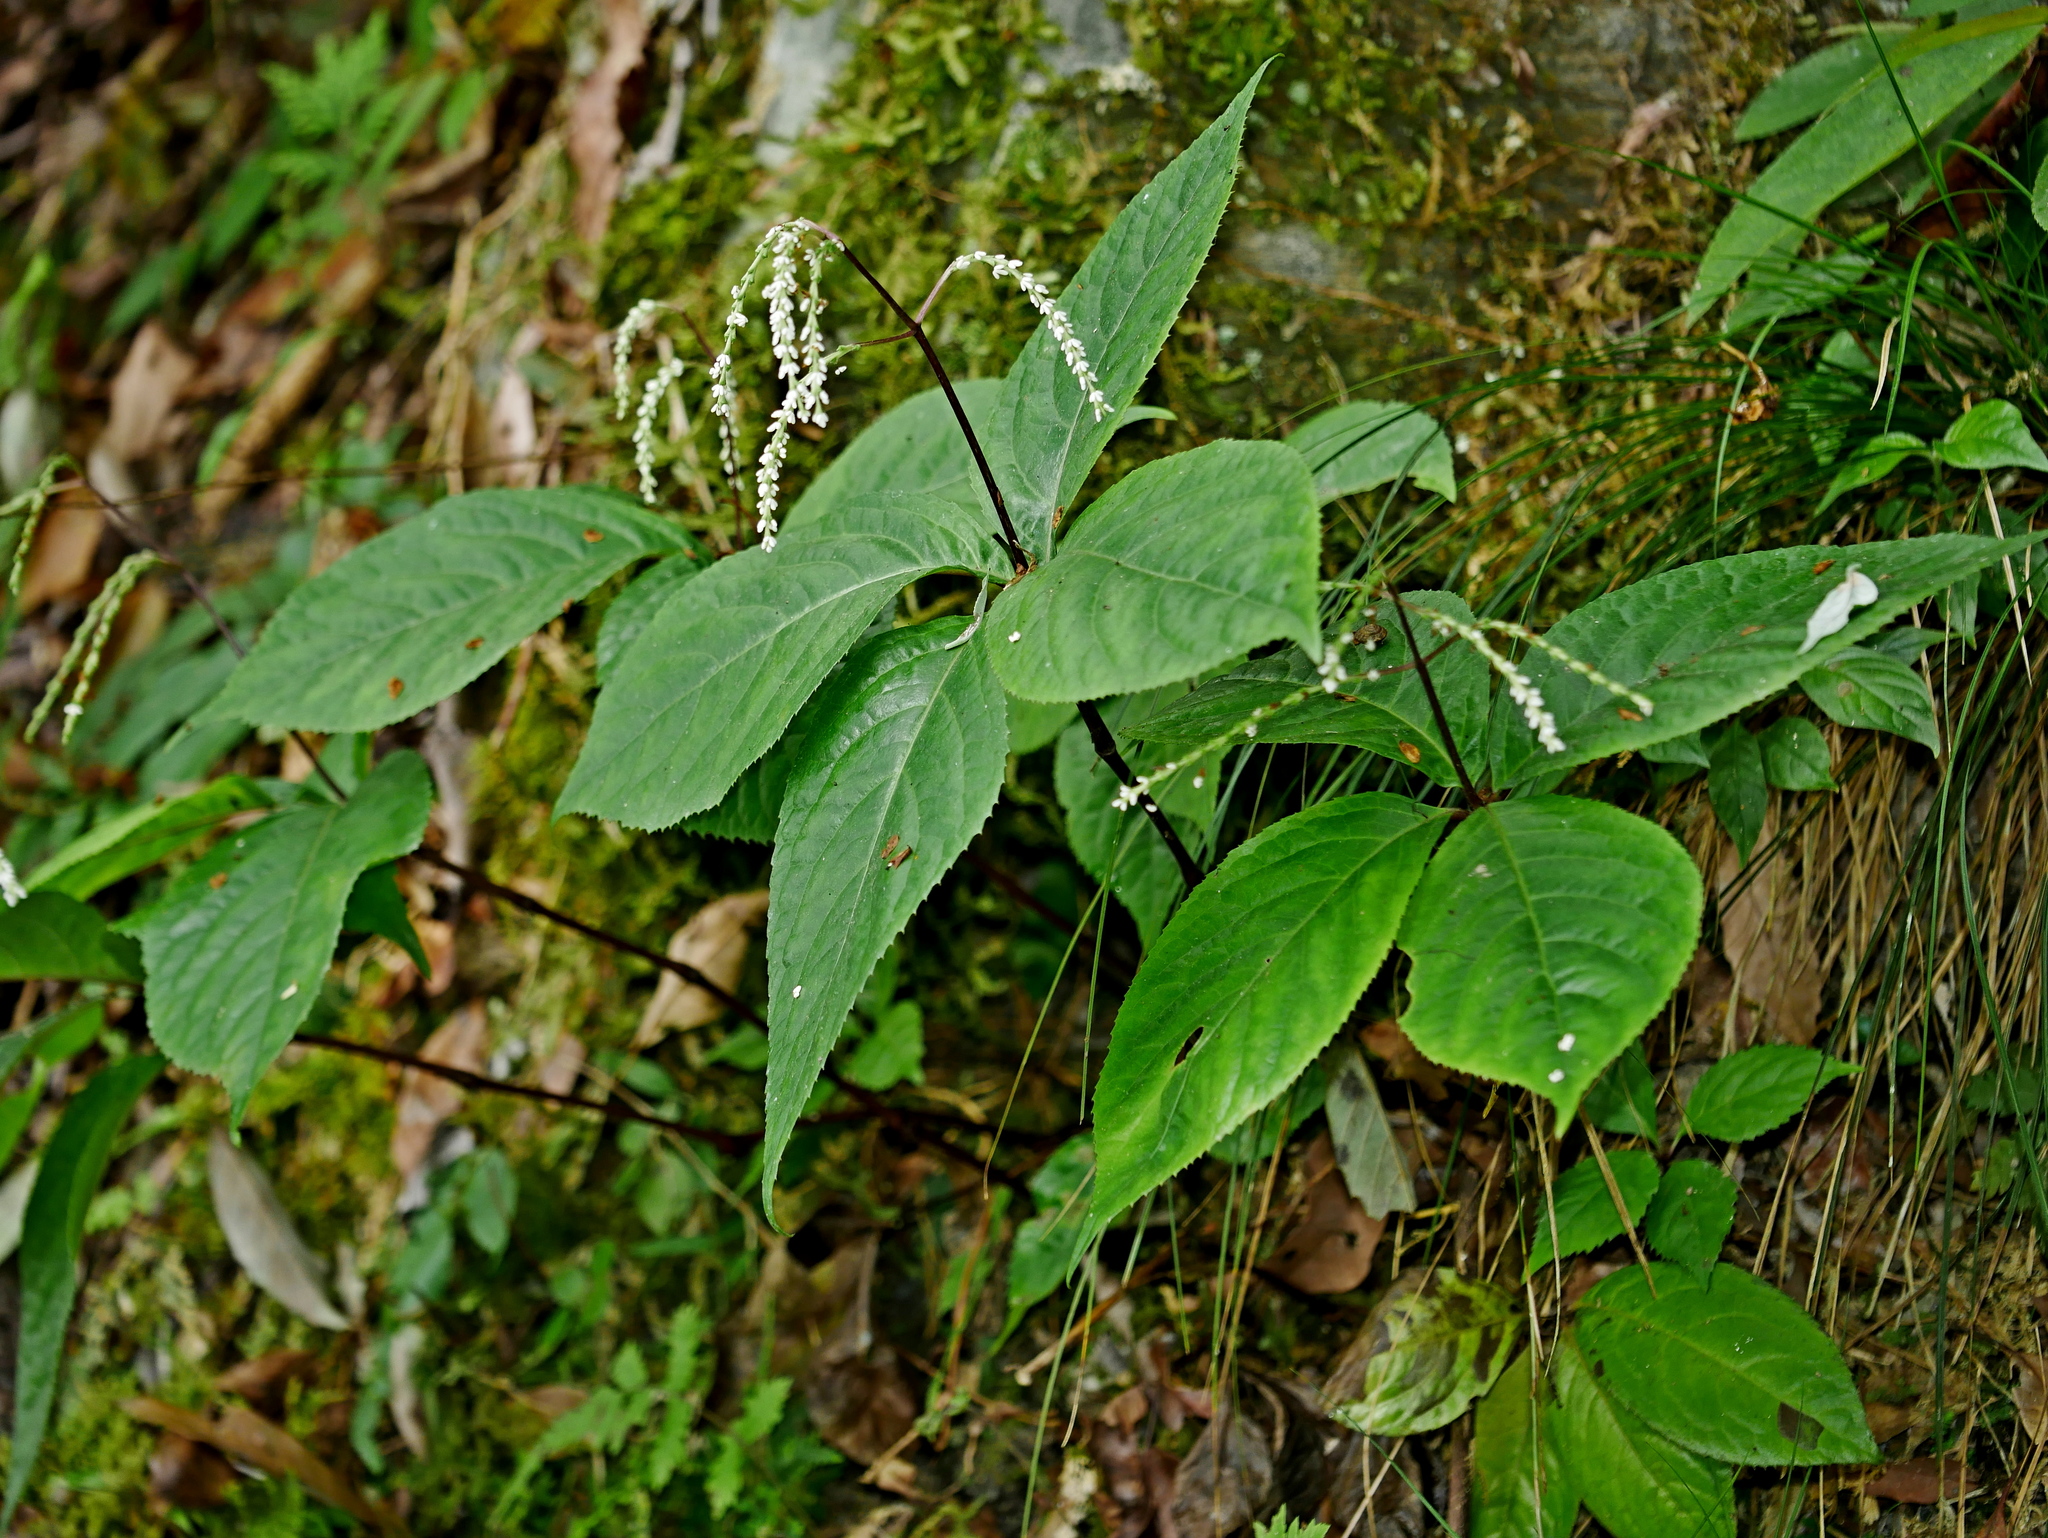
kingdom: Plantae
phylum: Tracheophyta
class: Magnoliopsida
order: Chloranthales
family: Chloranthaceae
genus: Chloranthus
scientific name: Chloranthus oldhamii
